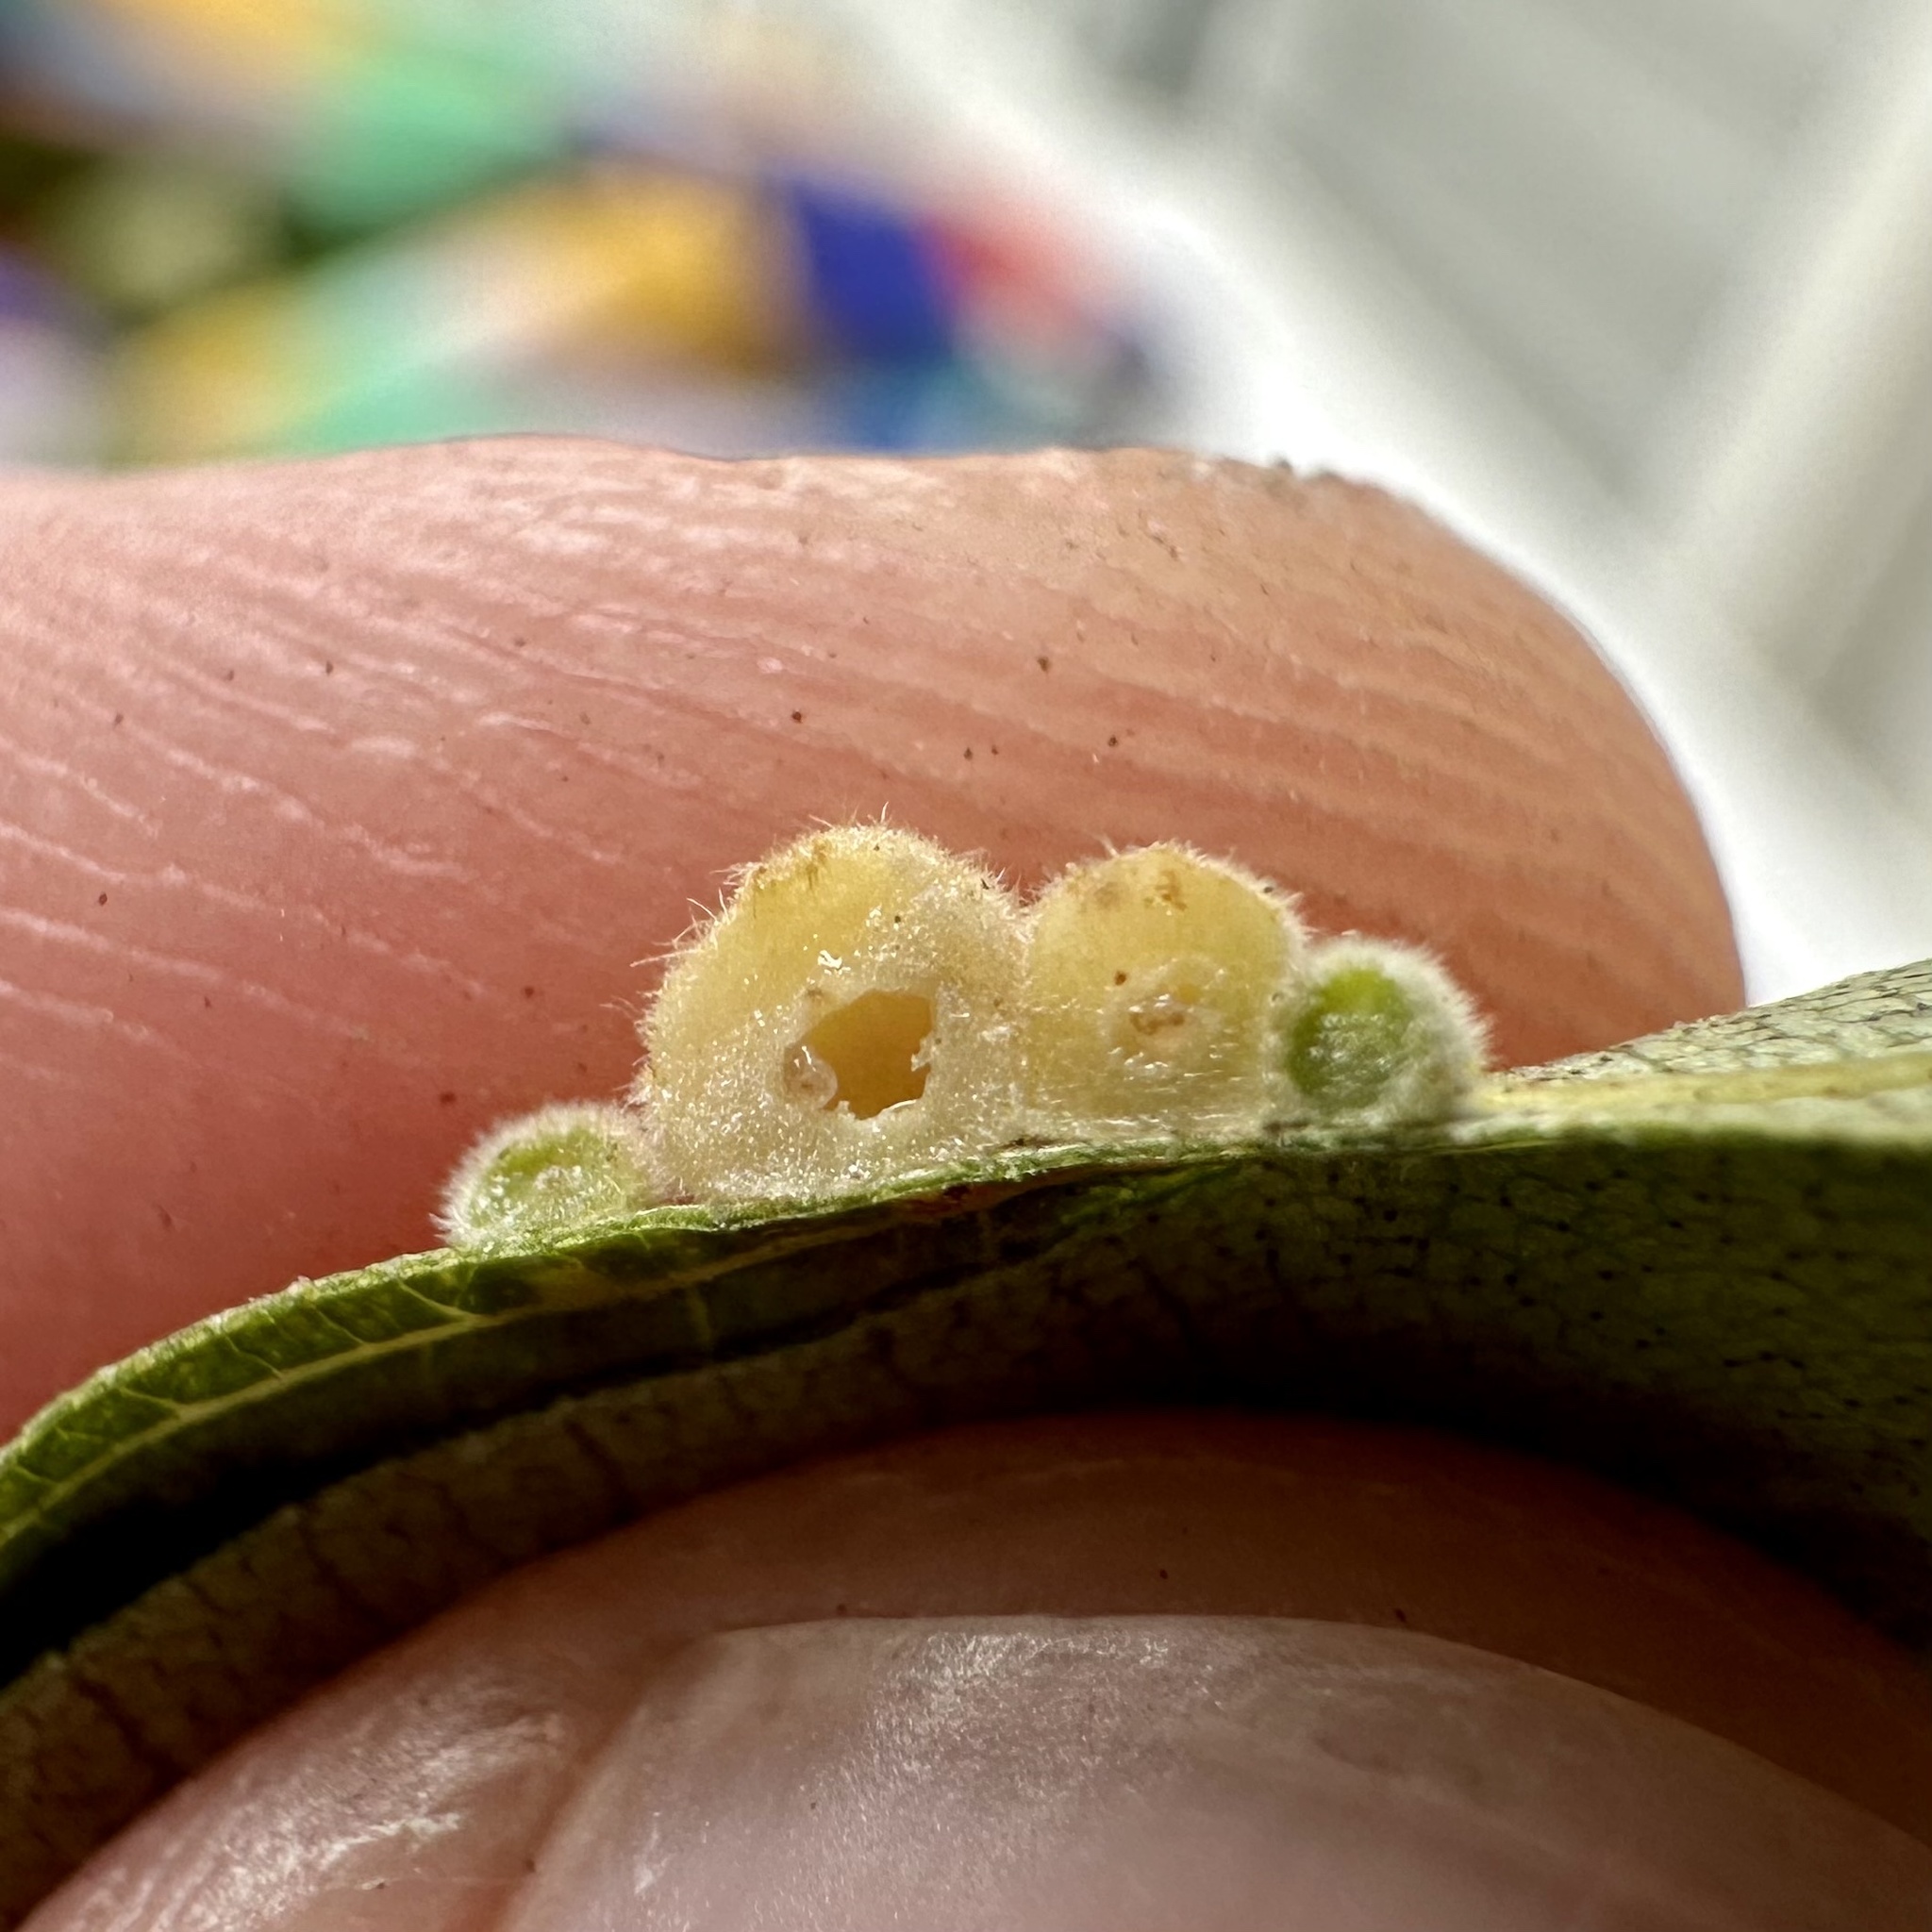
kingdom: Animalia
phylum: Arthropoda
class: Insecta
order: Diptera
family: Cecidomyiidae
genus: Caryomyia
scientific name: Caryomyia persicoides
